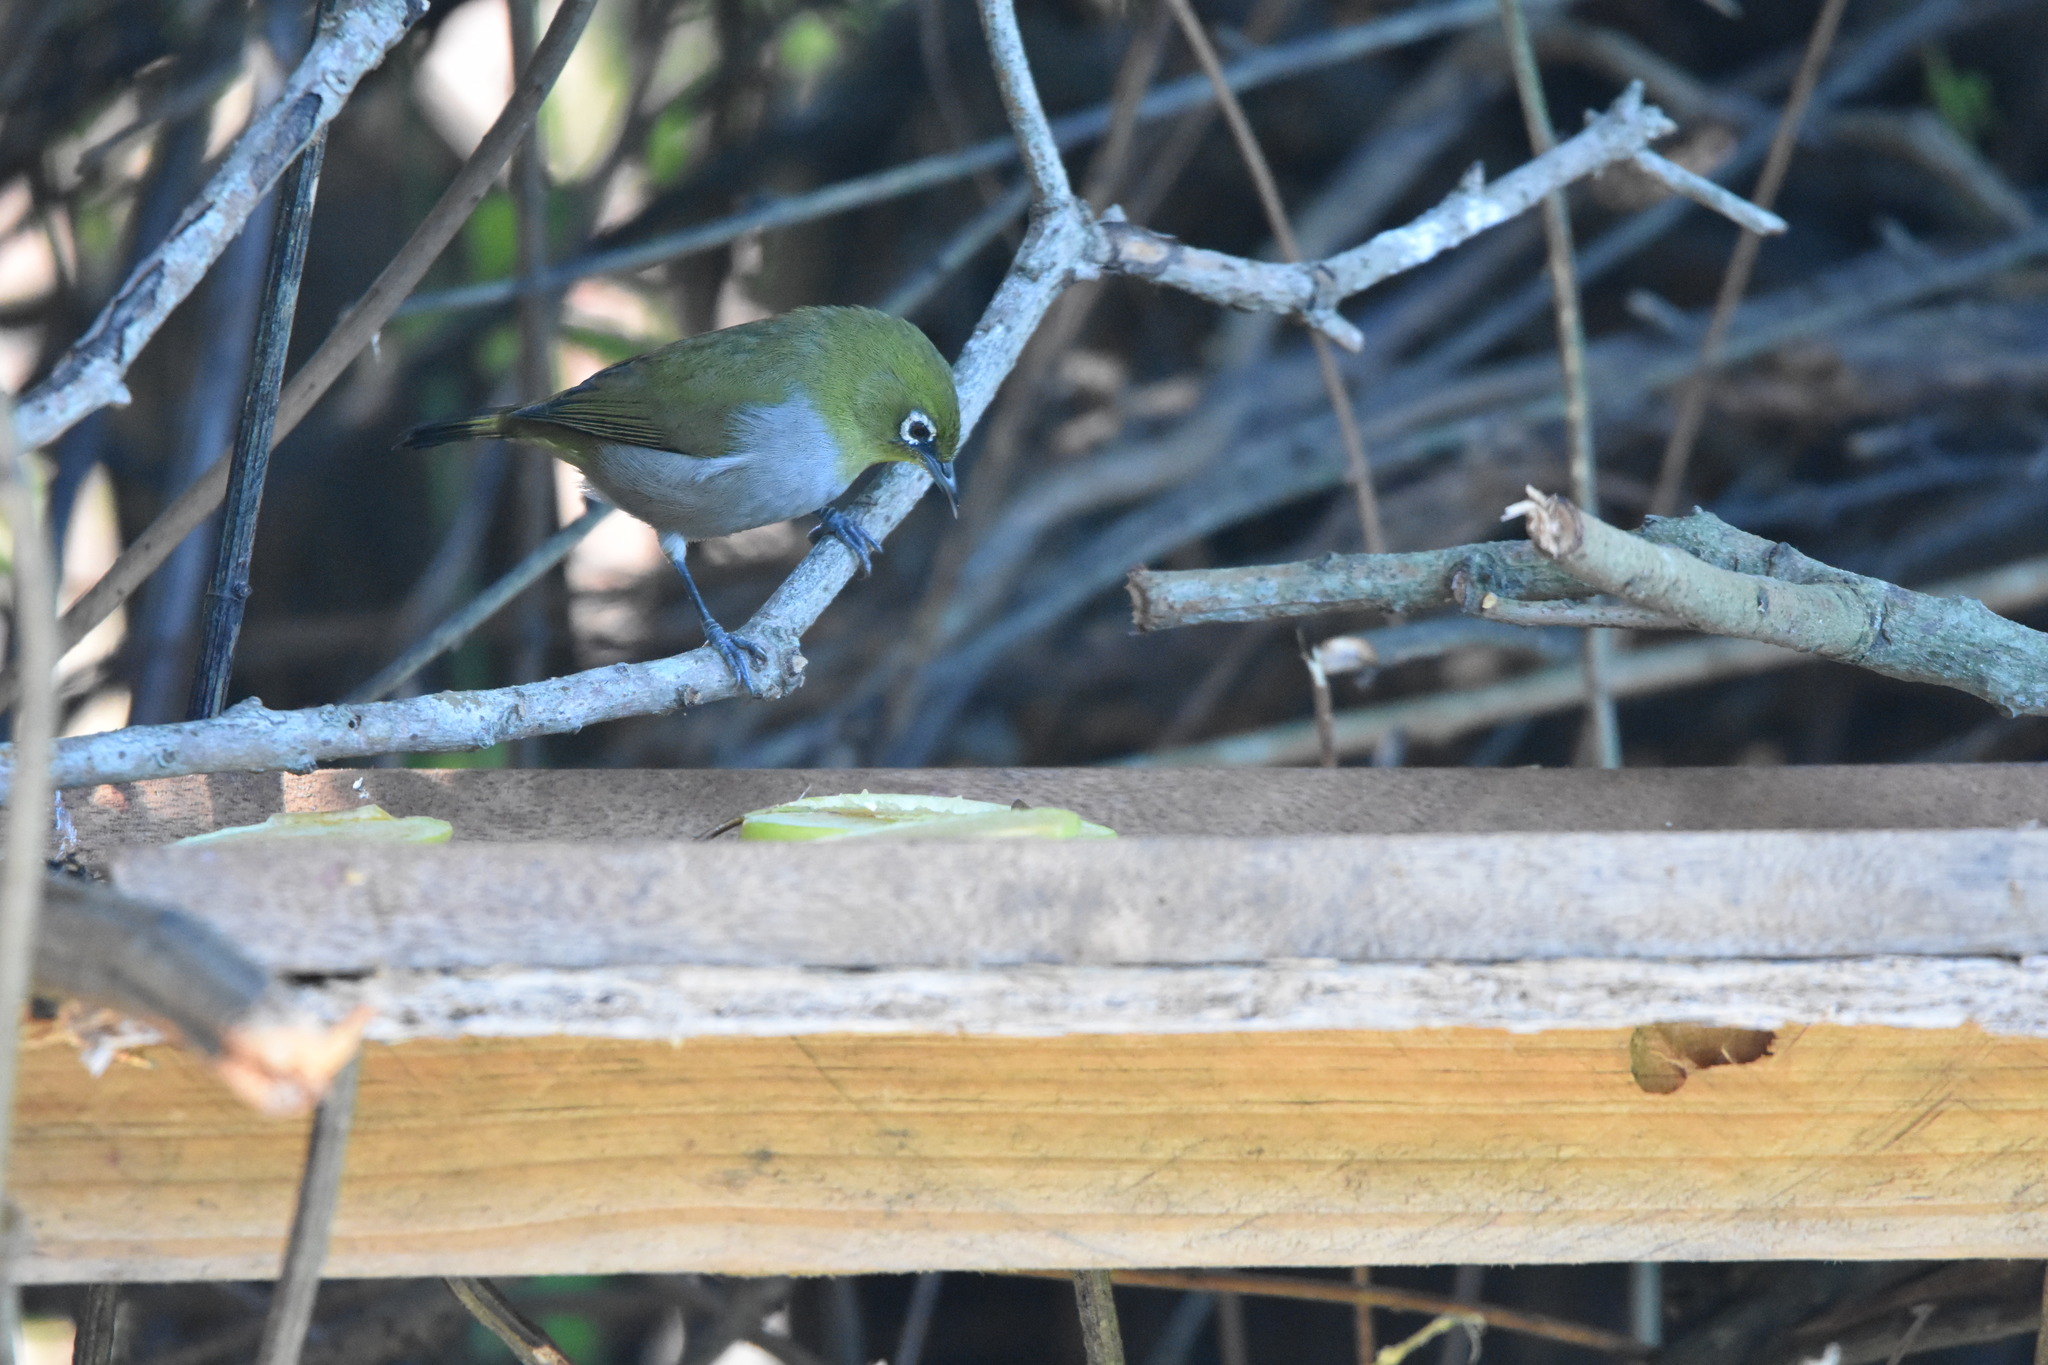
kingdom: Animalia
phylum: Chordata
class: Aves
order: Passeriformes
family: Zosteropidae
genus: Zosterops
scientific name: Zosterops virens
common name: Cape white-eye
